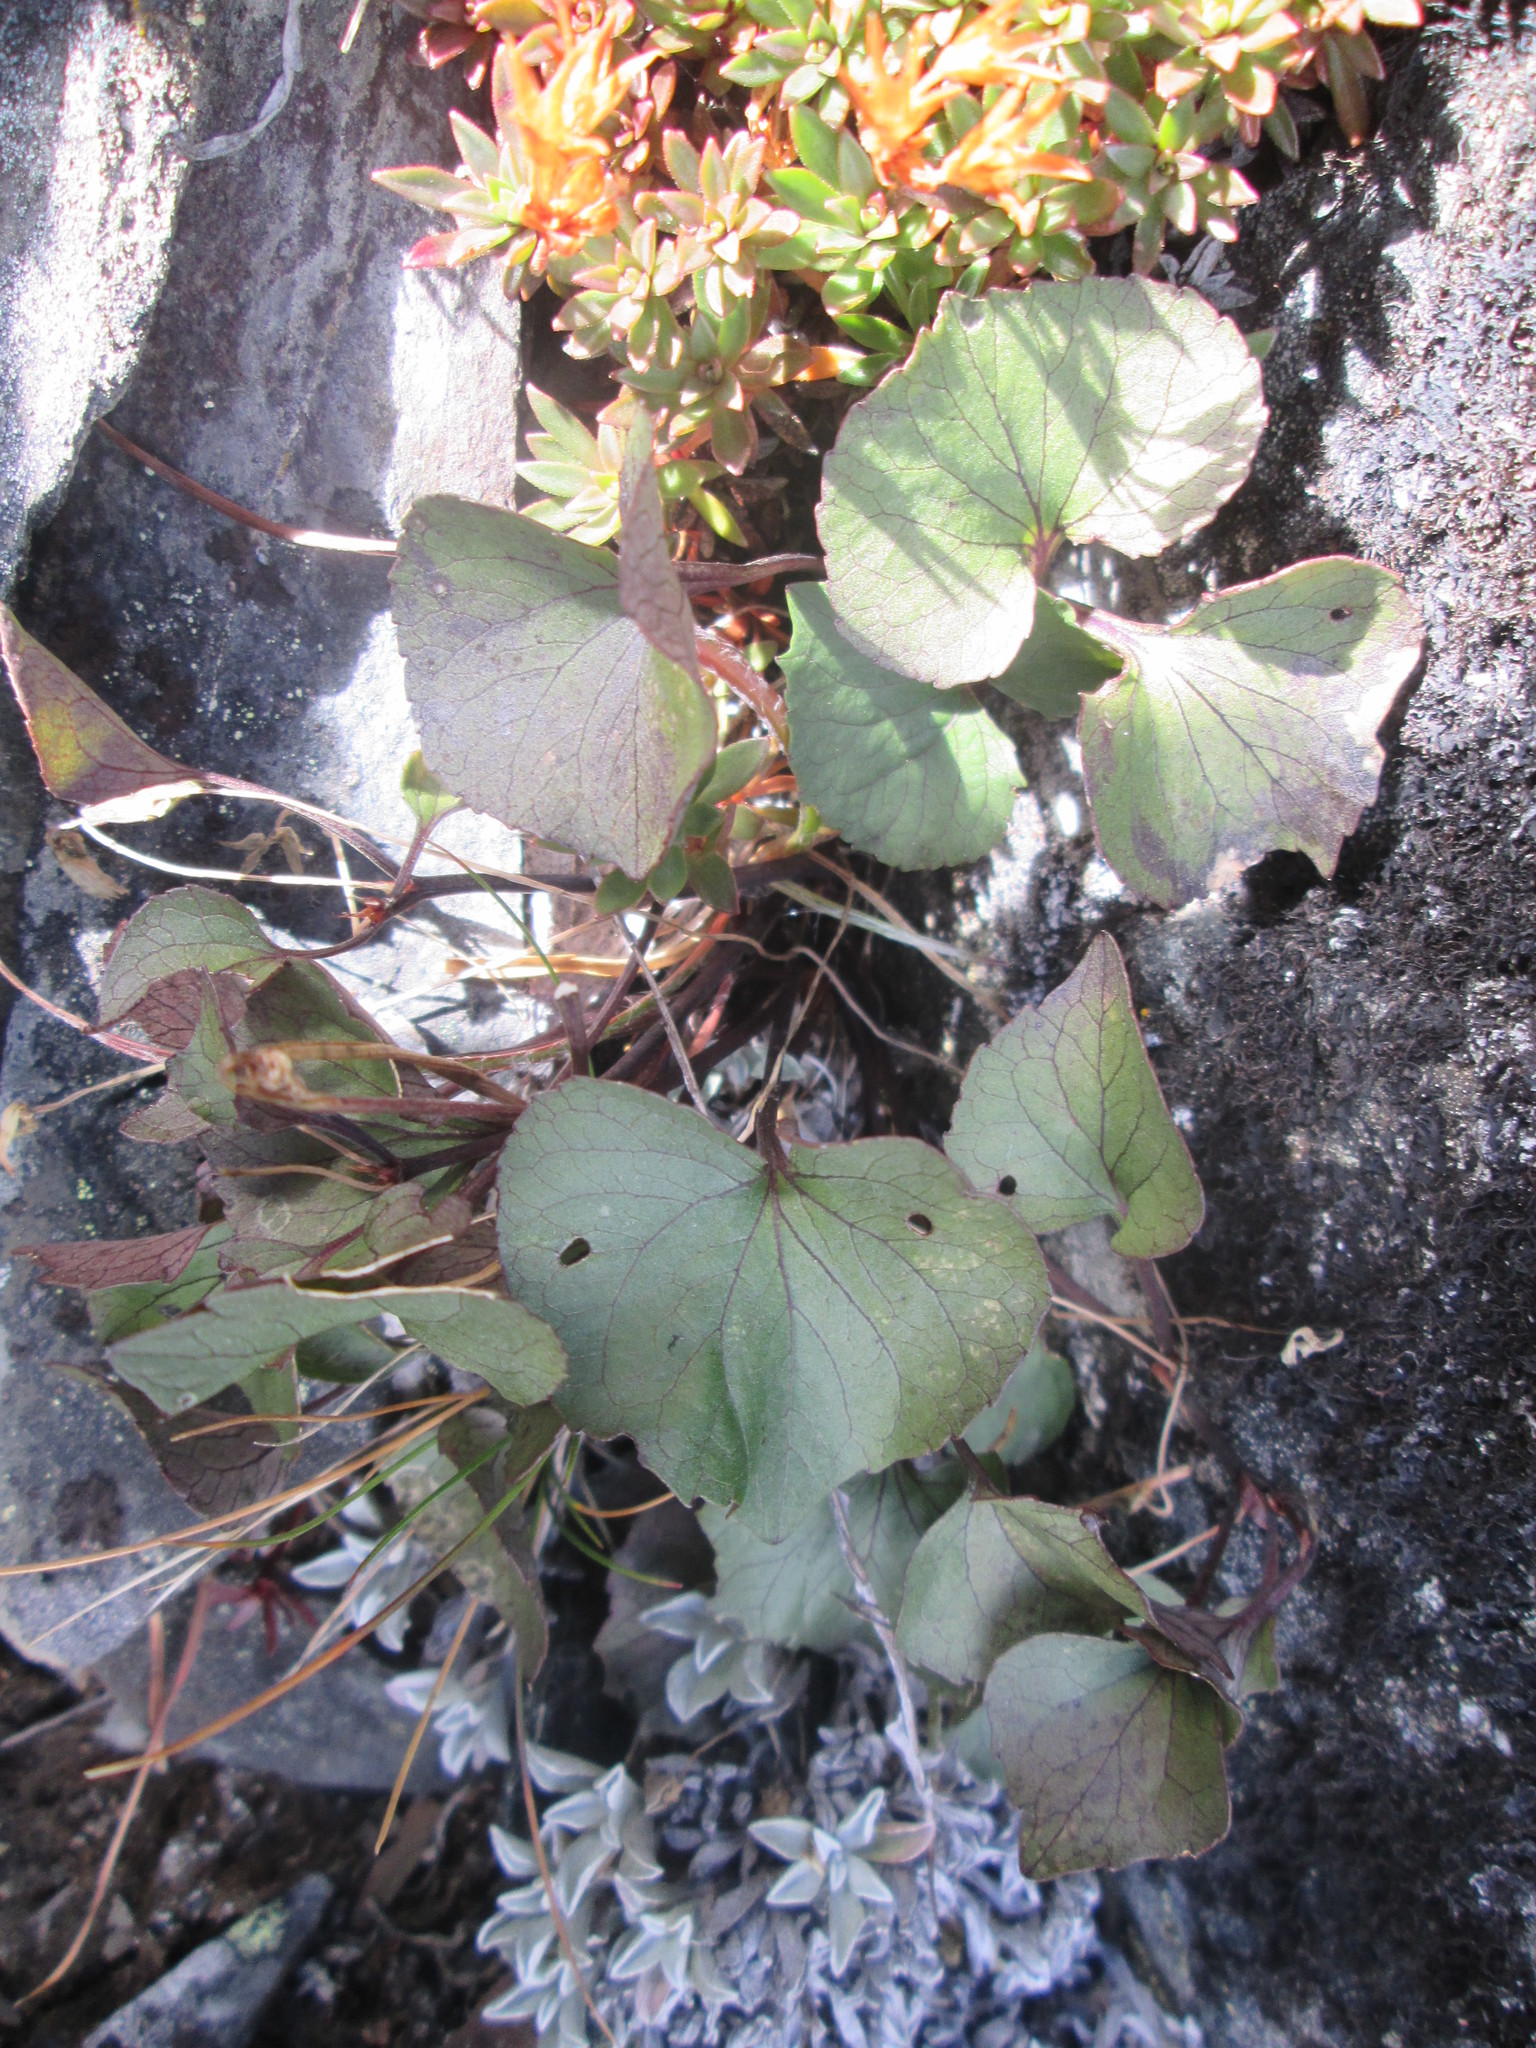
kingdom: Plantae
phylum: Tracheophyta
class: Magnoliopsida
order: Malpighiales
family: Violaceae
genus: Viola
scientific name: Viola flettii
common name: Rock violet
